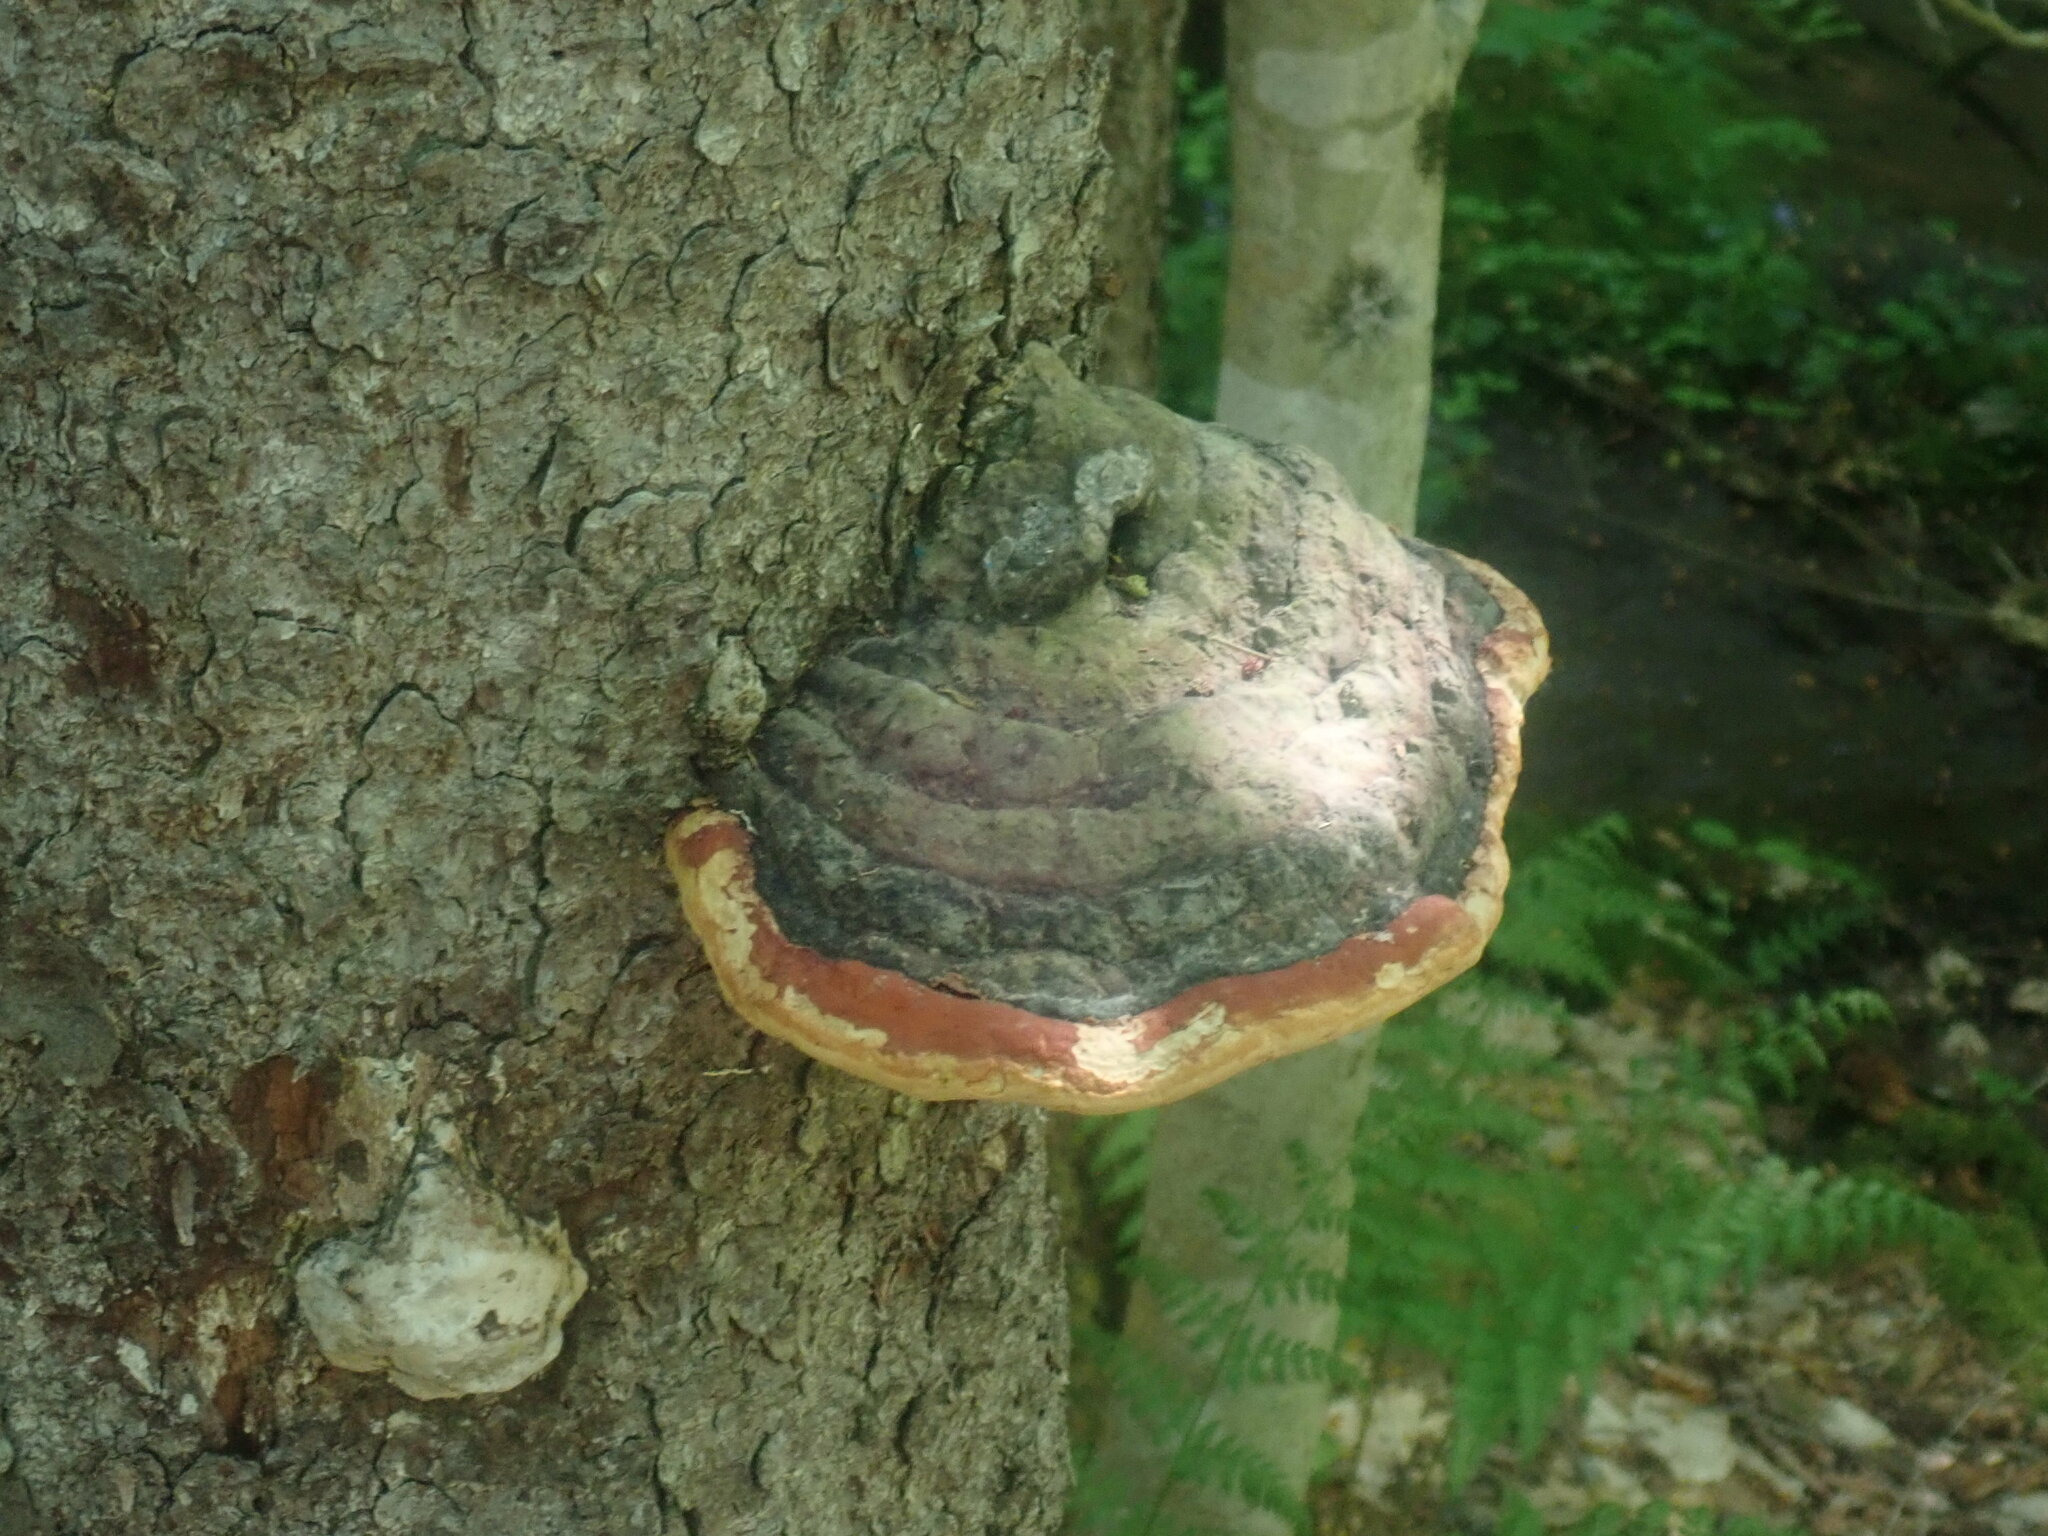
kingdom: Fungi
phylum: Basidiomycota
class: Agaricomycetes
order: Polyporales
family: Fomitopsidaceae
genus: Fomitopsis
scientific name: Fomitopsis mounceae
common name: Northern red belt
